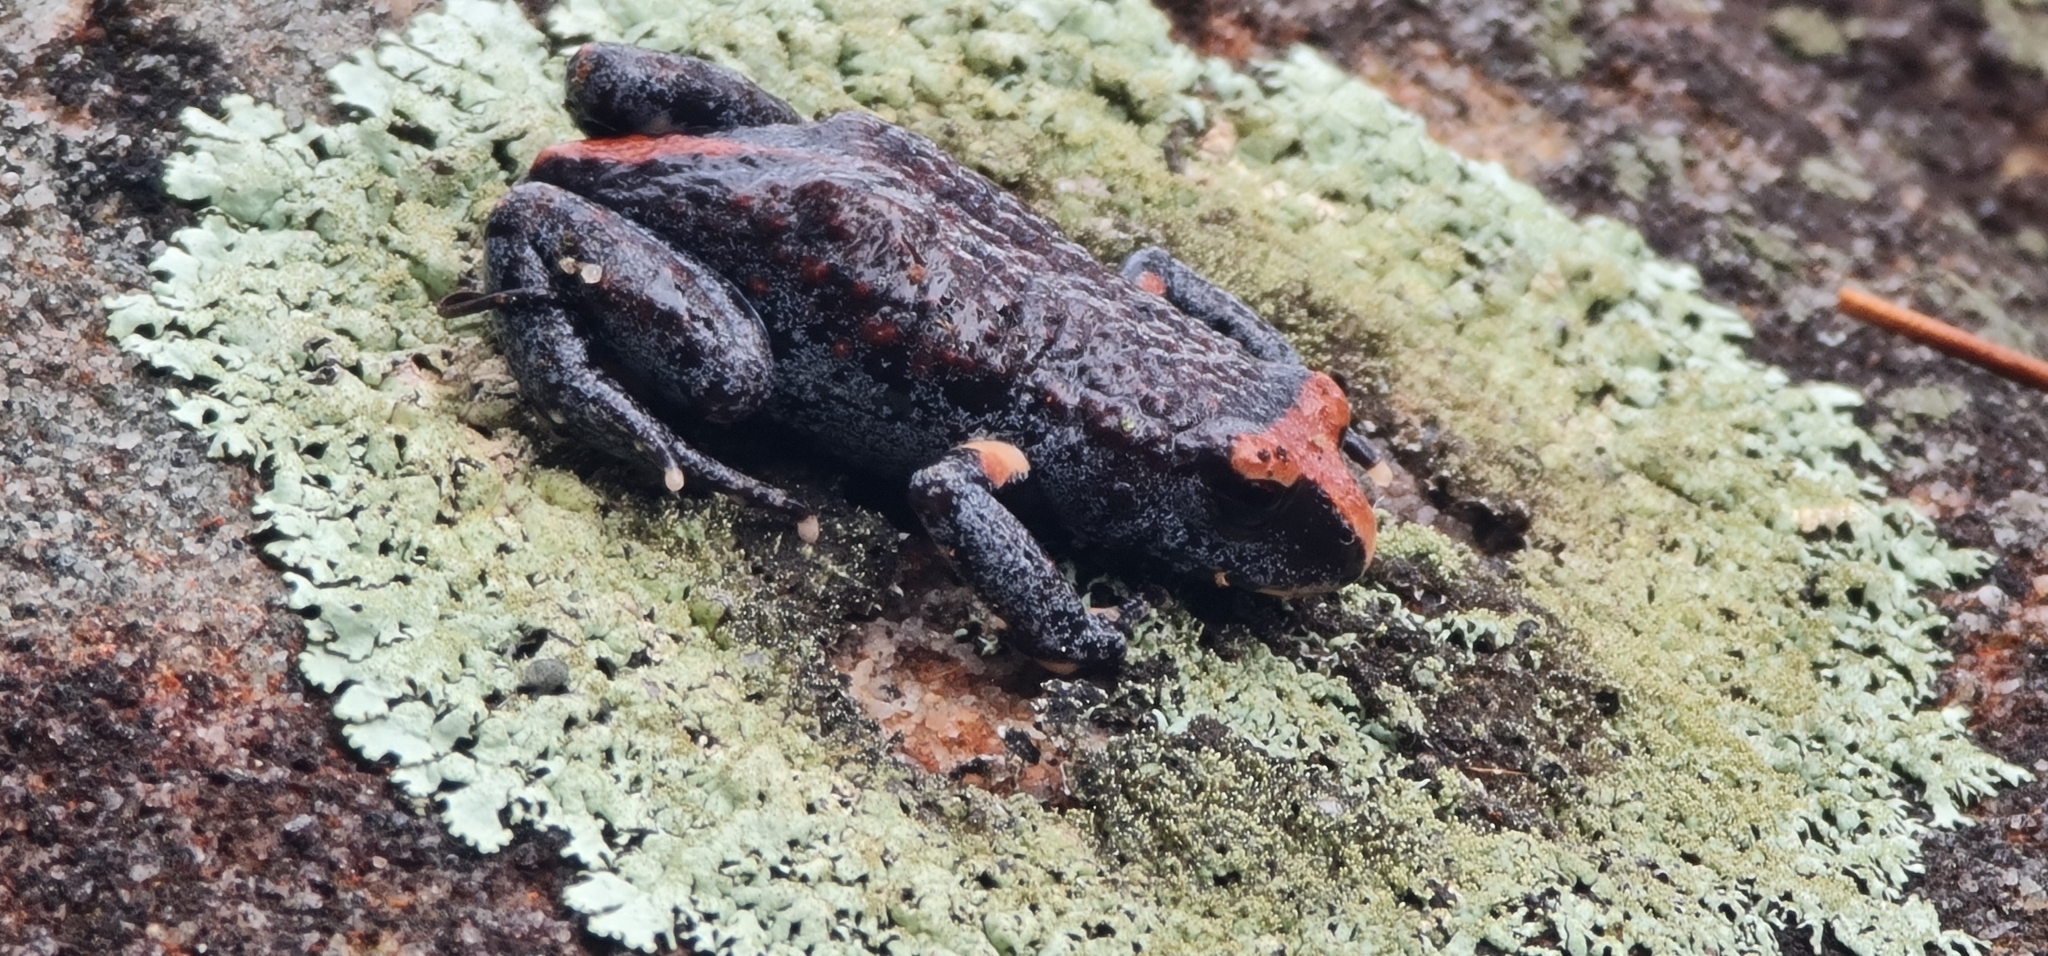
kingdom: Animalia
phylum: Chordata
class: Amphibia
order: Anura
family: Myobatrachidae
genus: Pseudophryne
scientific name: Pseudophryne australis
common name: Red-crowned toadlet
